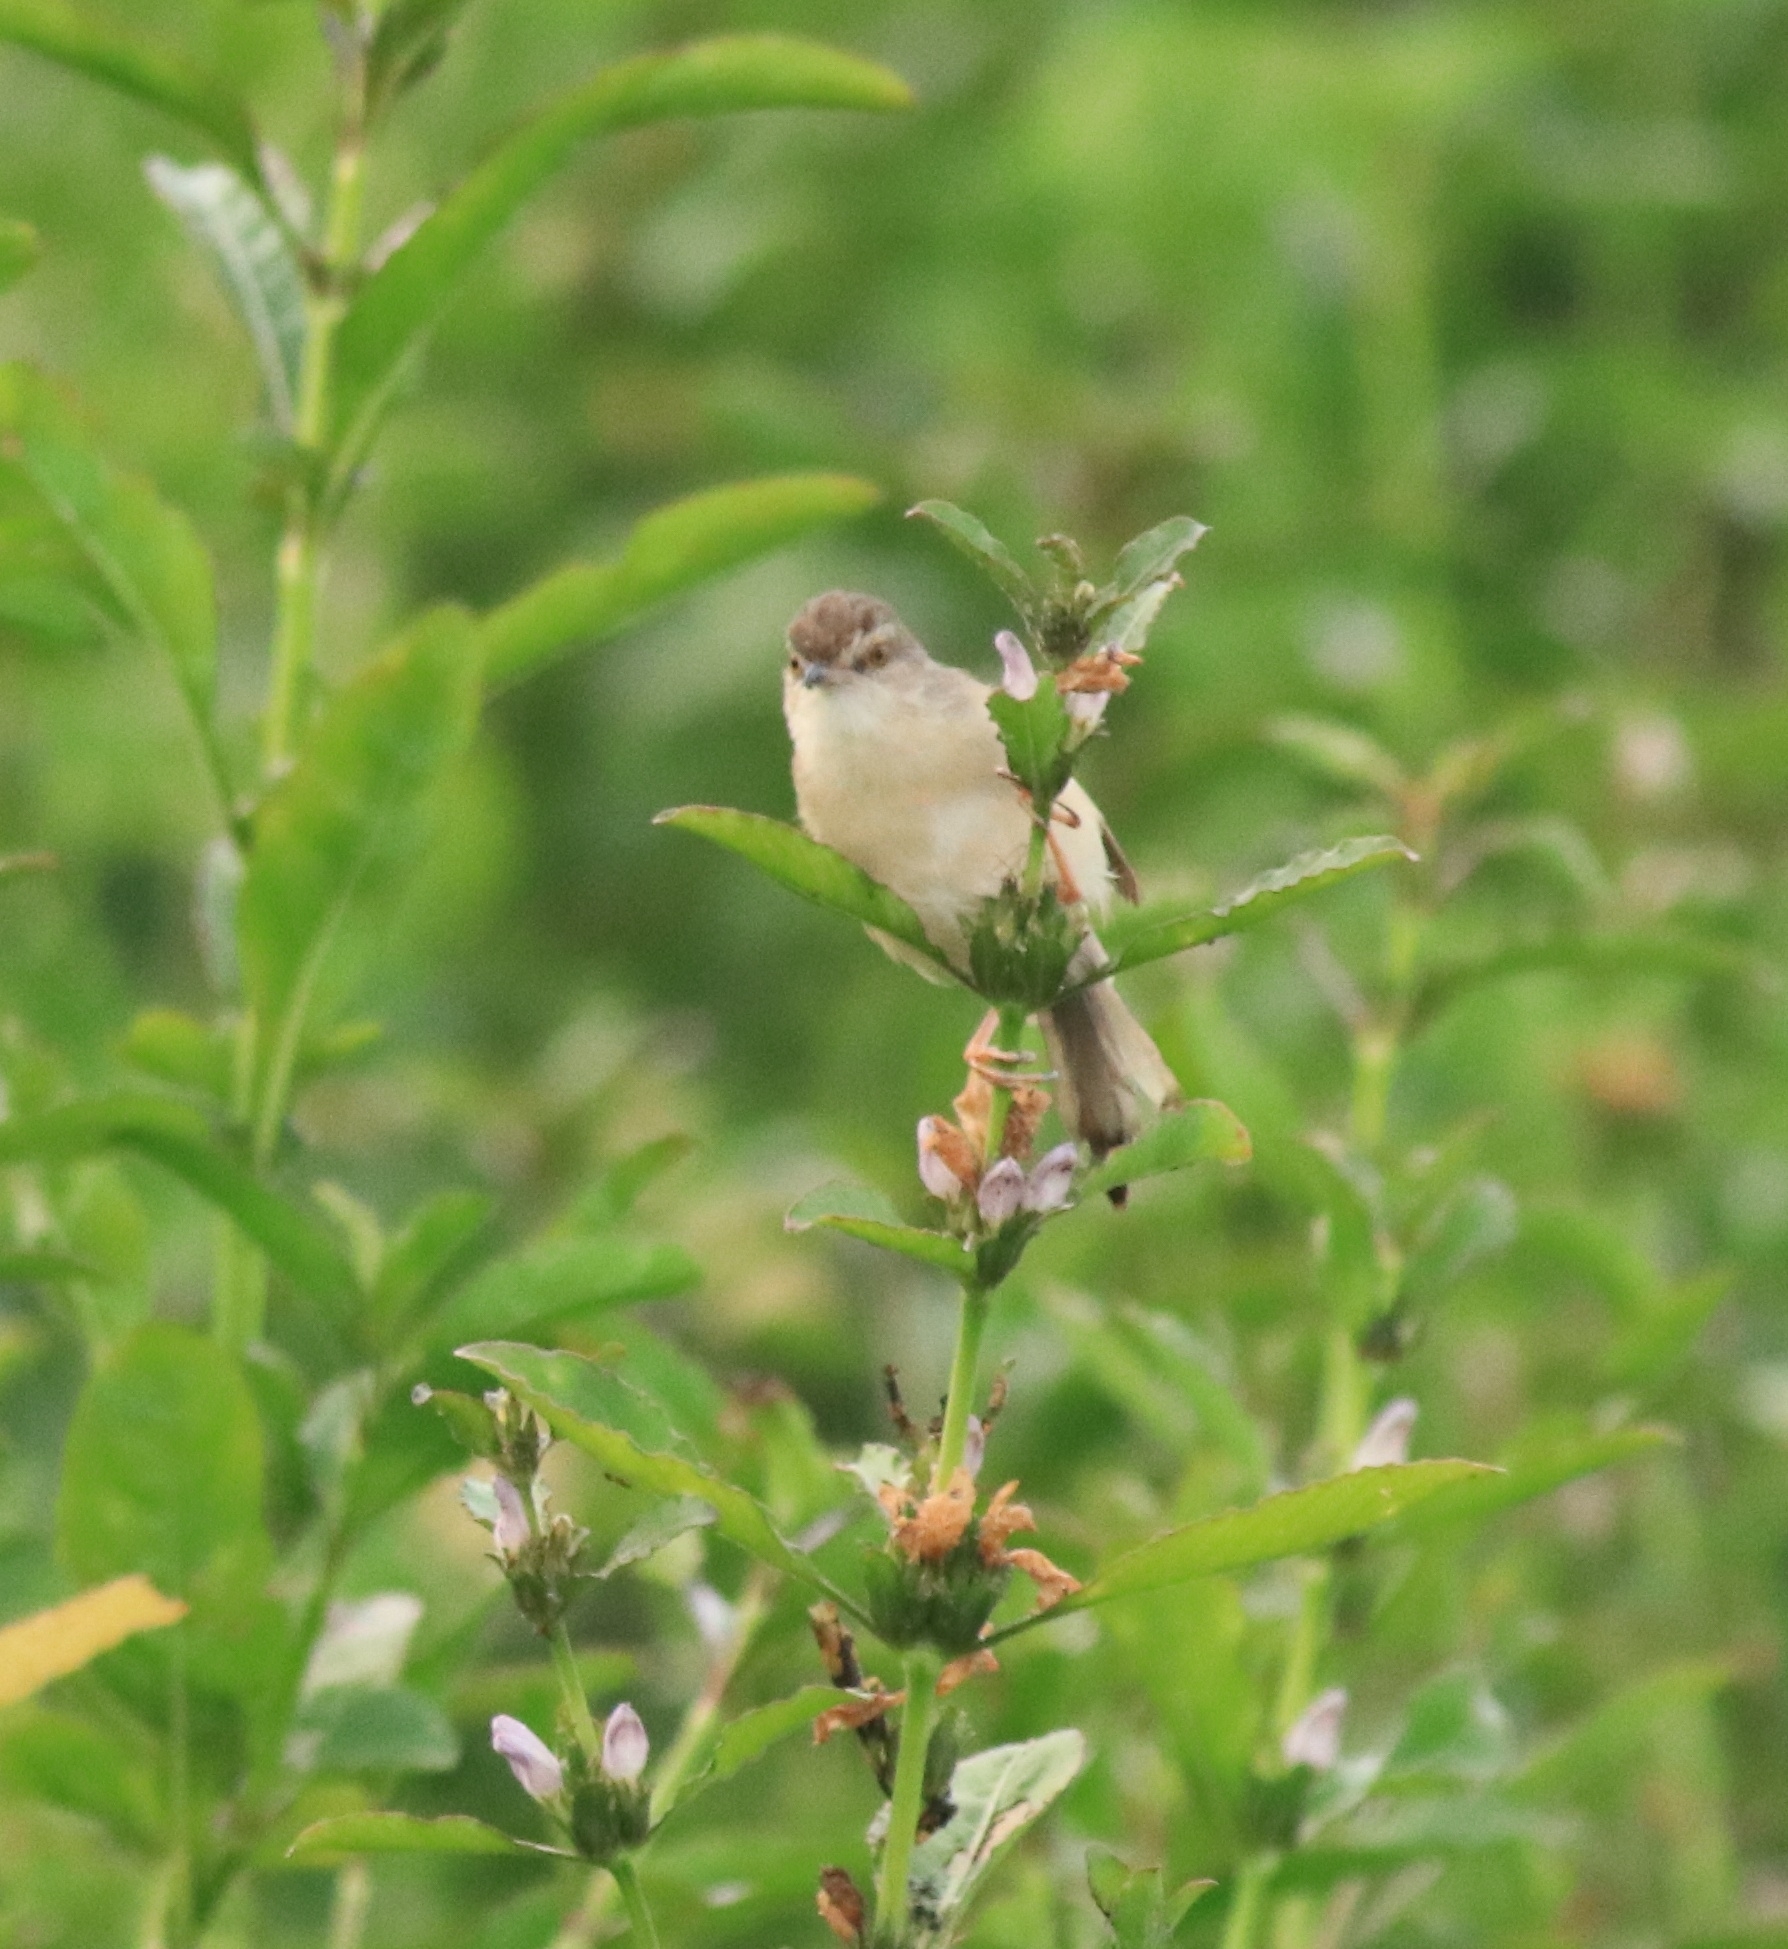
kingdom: Animalia
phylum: Chordata
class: Aves
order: Passeriformes
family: Cisticolidae
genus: Prinia
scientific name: Prinia inornata
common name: Plain prinia
